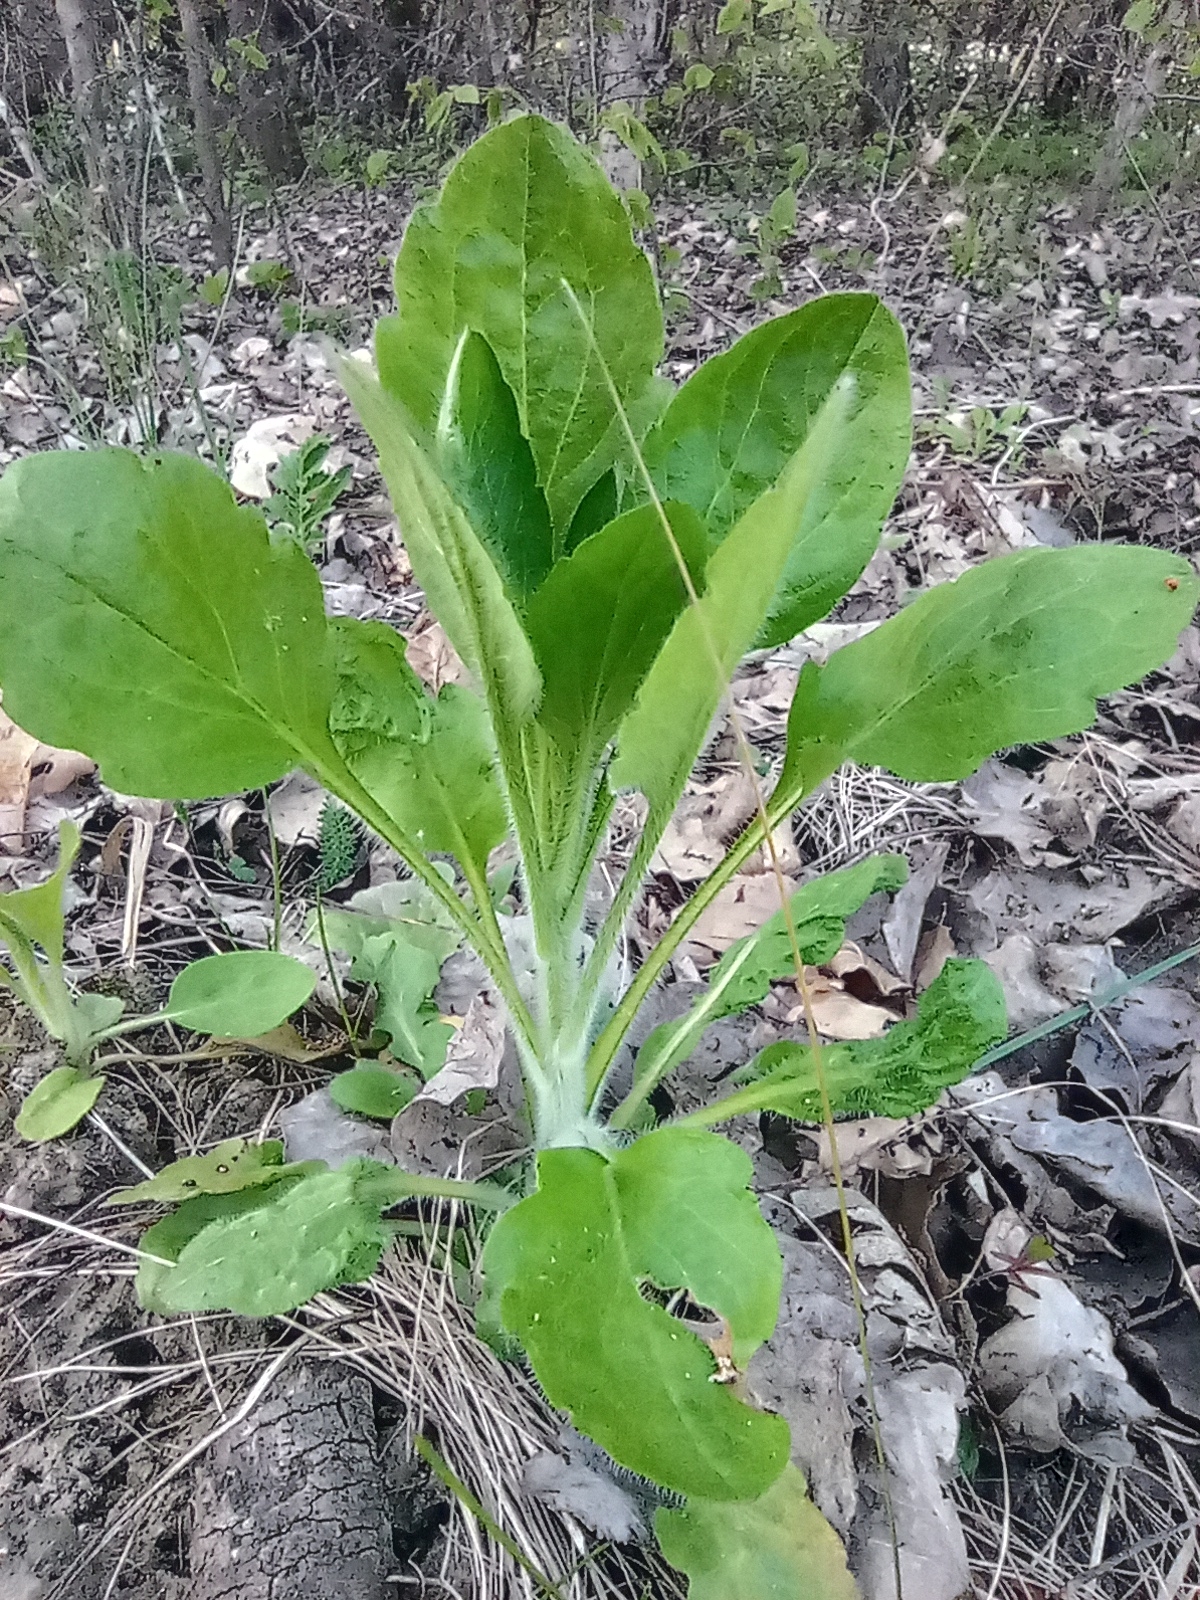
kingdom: Plantae
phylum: Tracheophyta
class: Magnoliopsida
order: Asterales
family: Asteraceae
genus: Erigeron
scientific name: Erigeron annuus
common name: Tall fleabane
